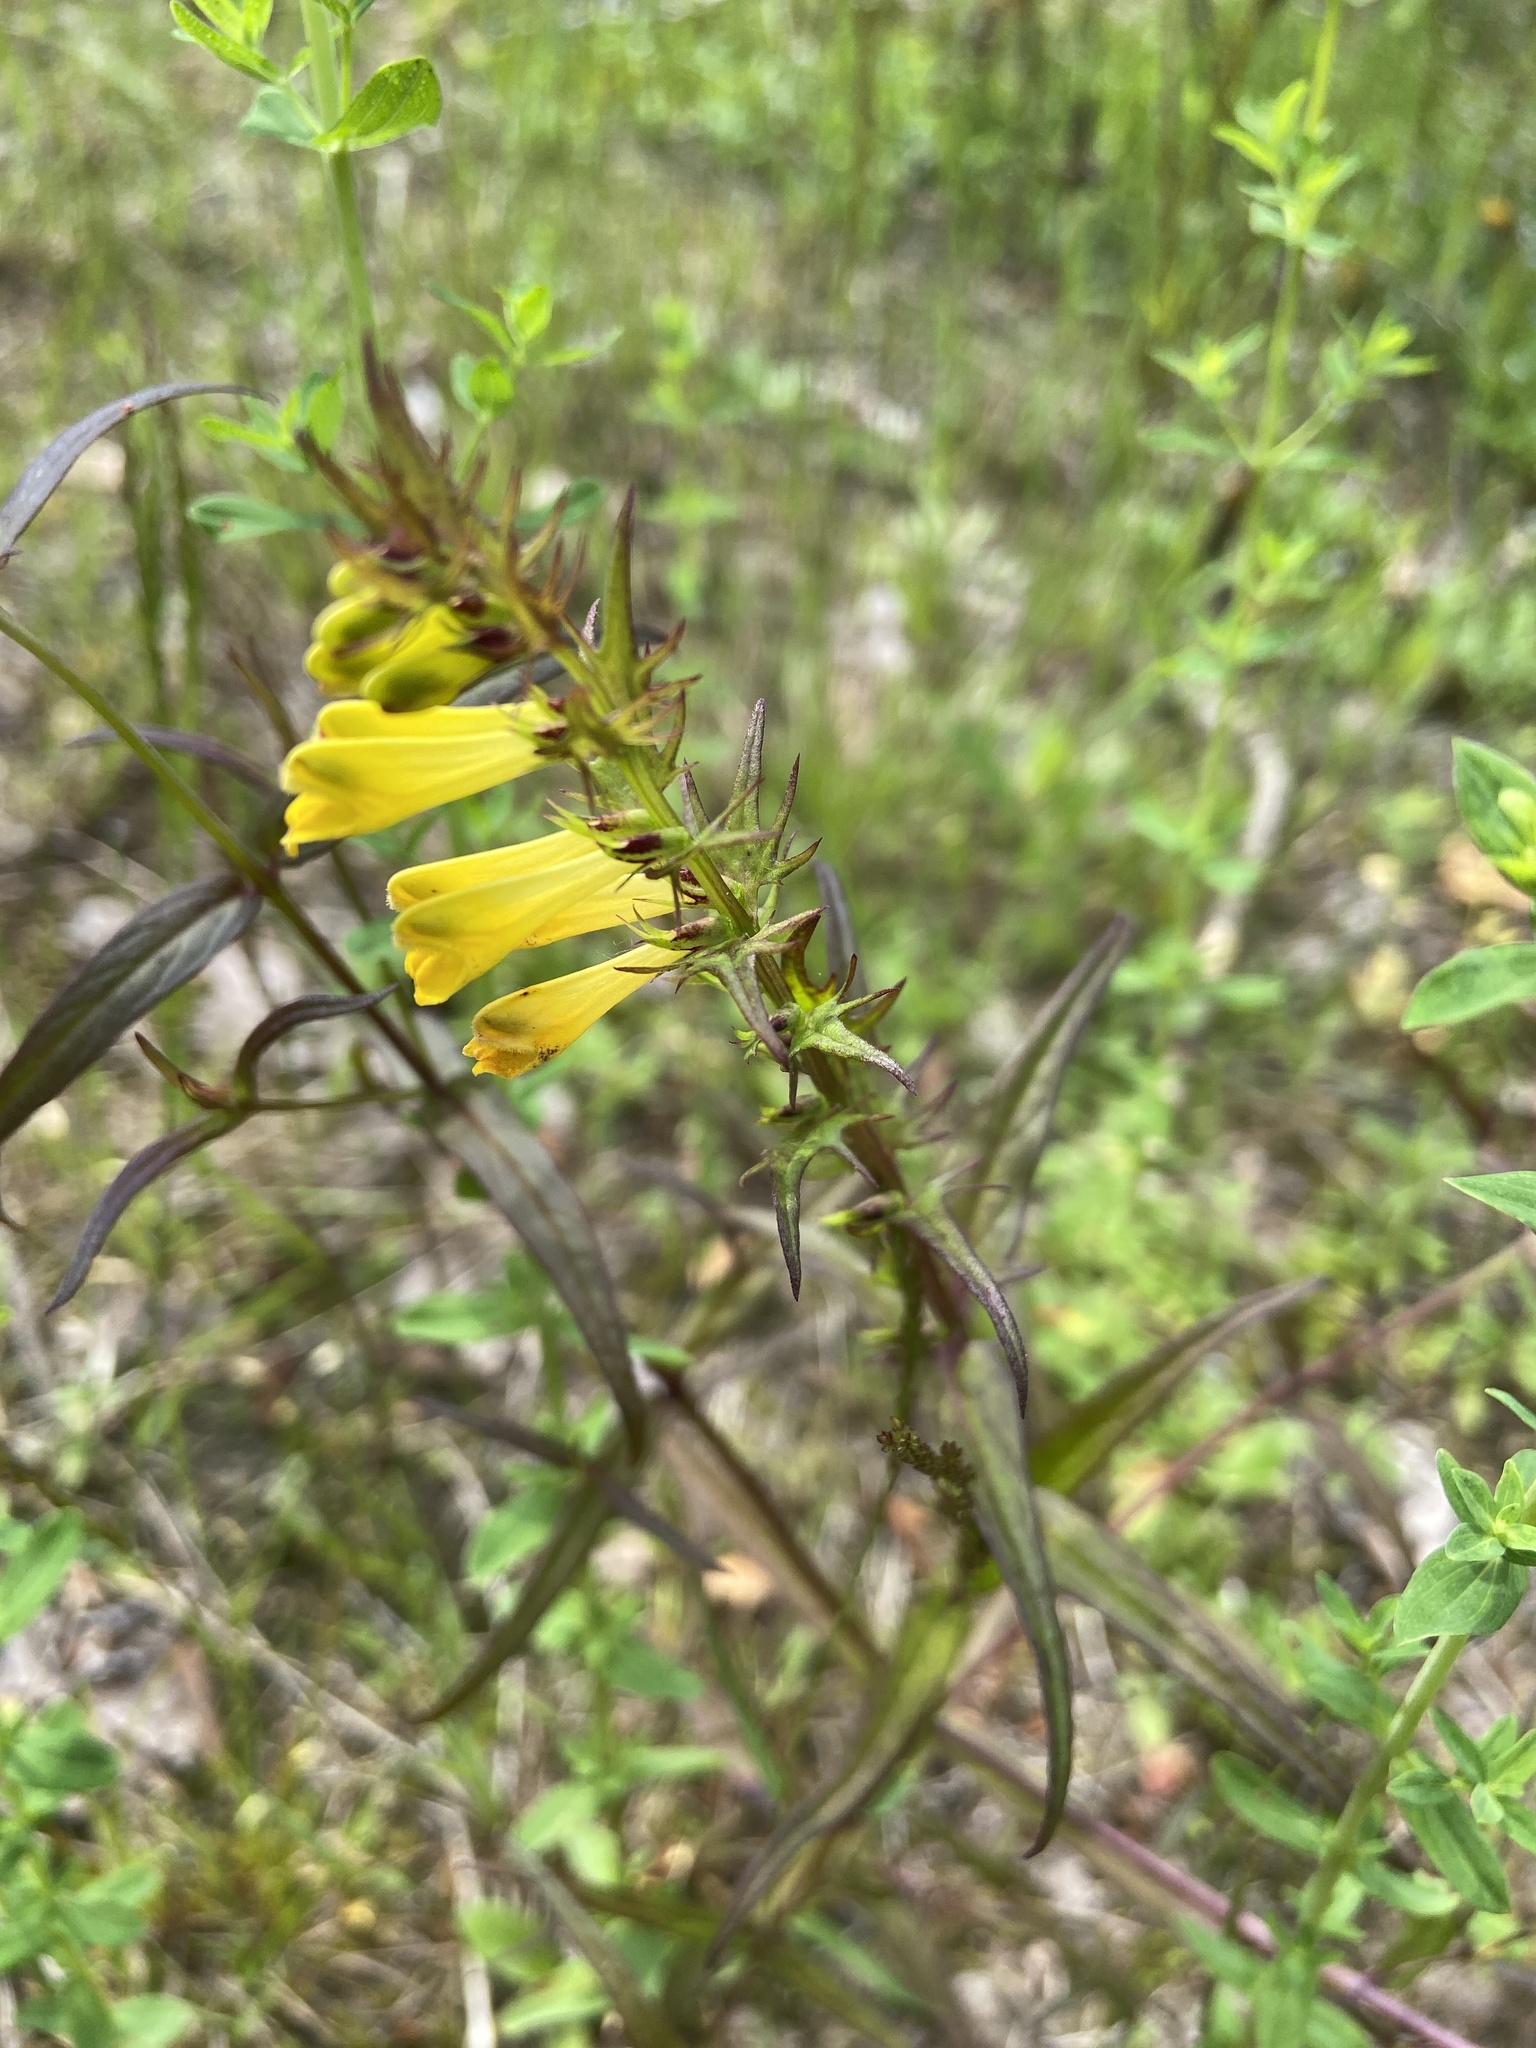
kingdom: Plantae
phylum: Tracheophyta
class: Magnoliopsida
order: Lamiales
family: Orobanchaceae
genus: Melampyrum
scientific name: Melampyrum pratense
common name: Common cow-wheat
